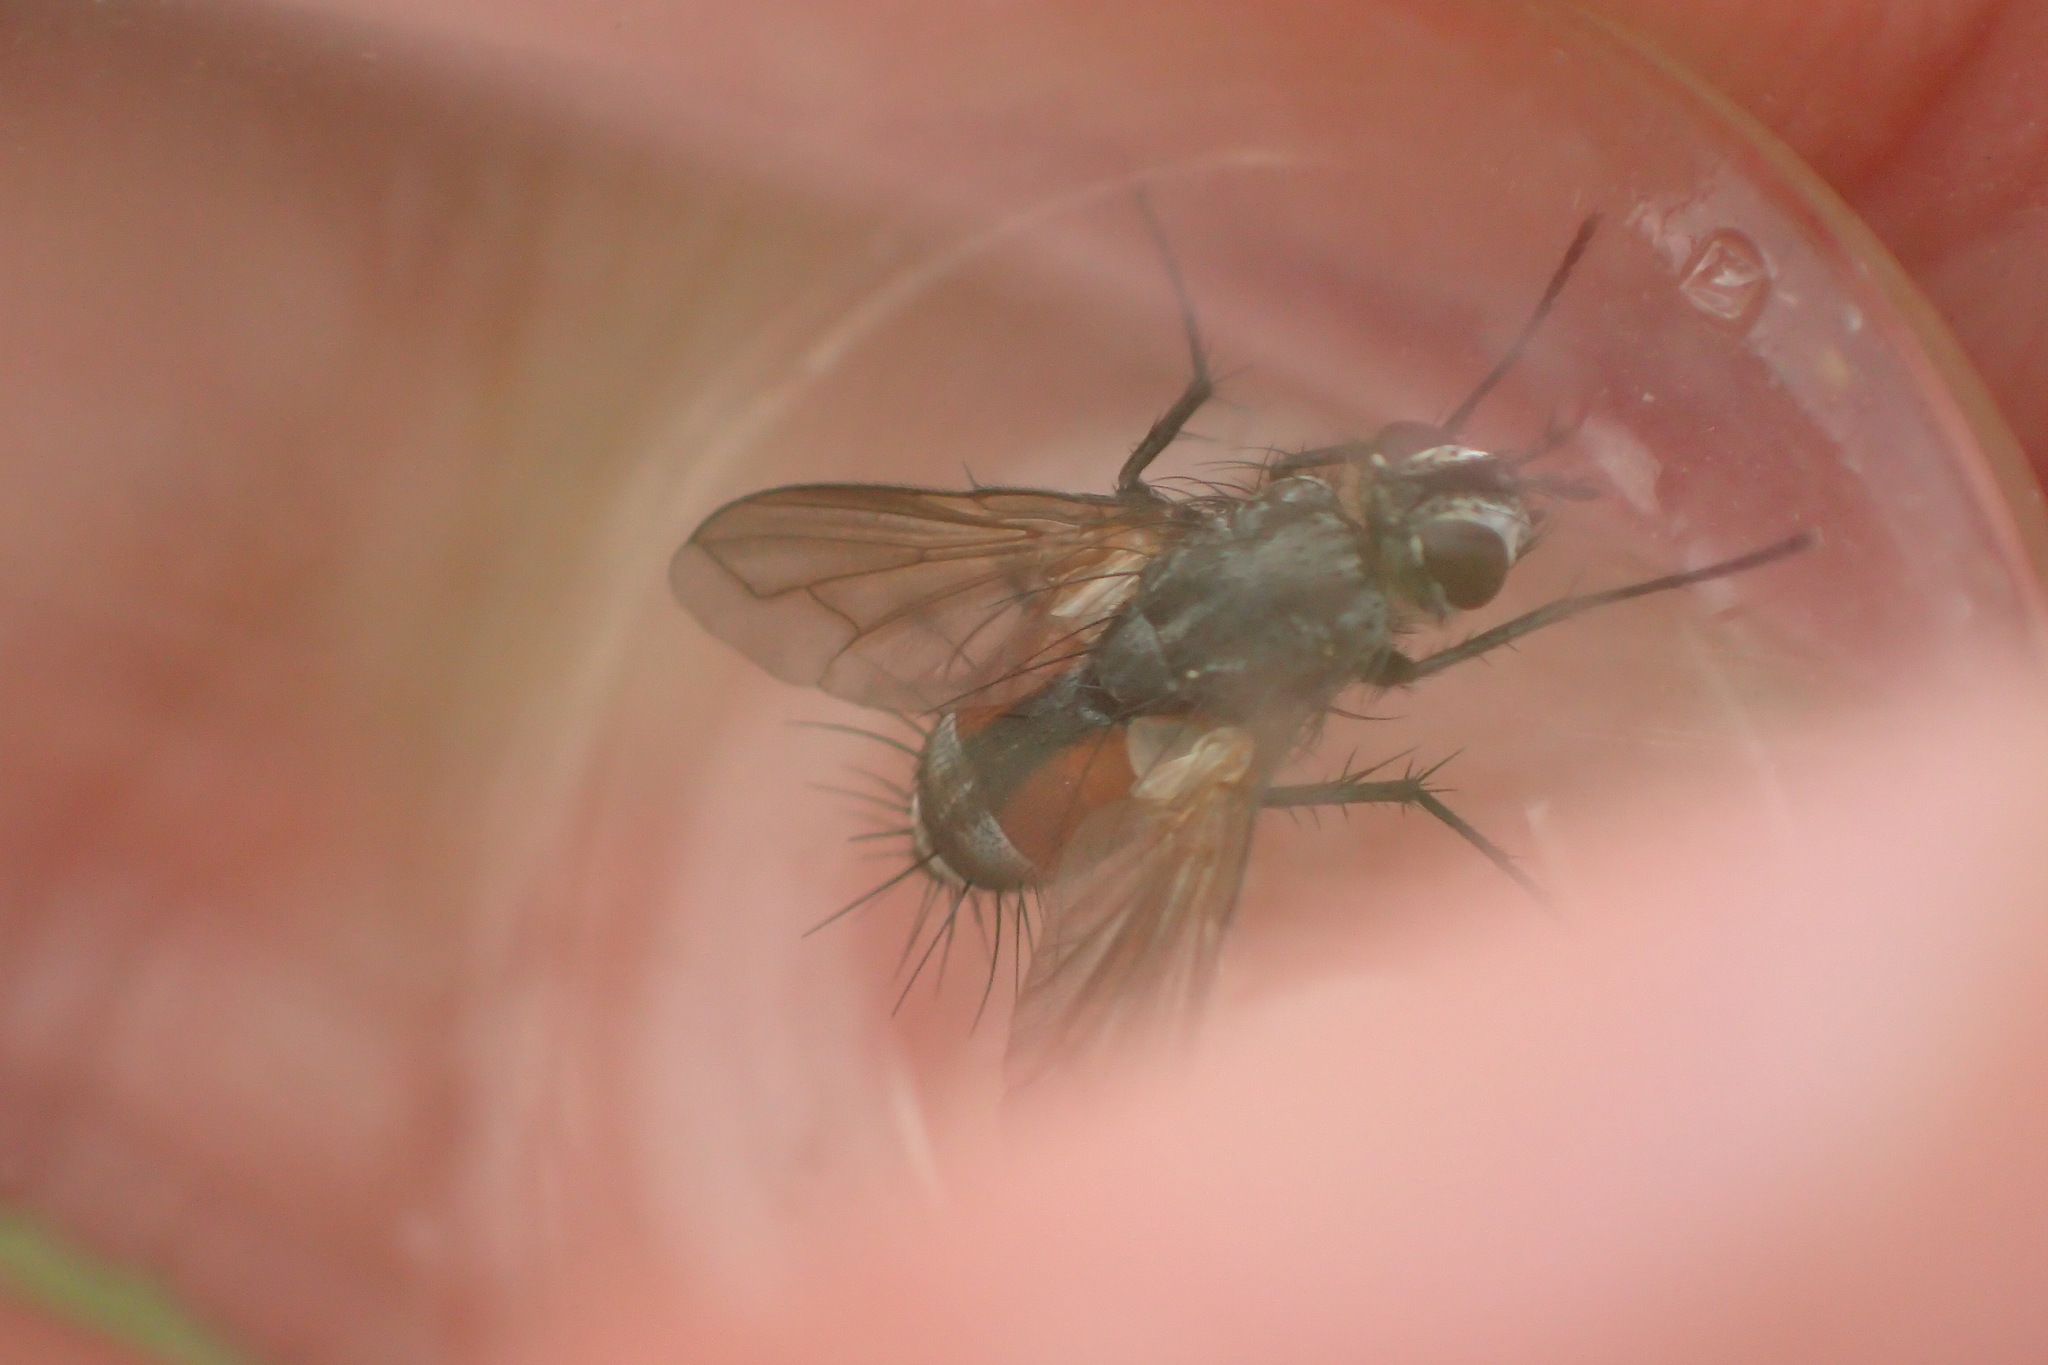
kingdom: Animalia
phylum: Arthropoda
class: Insecta
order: Diptera
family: Tachinidae
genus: Eriothrix
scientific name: Eriothrix rufomaculatus
